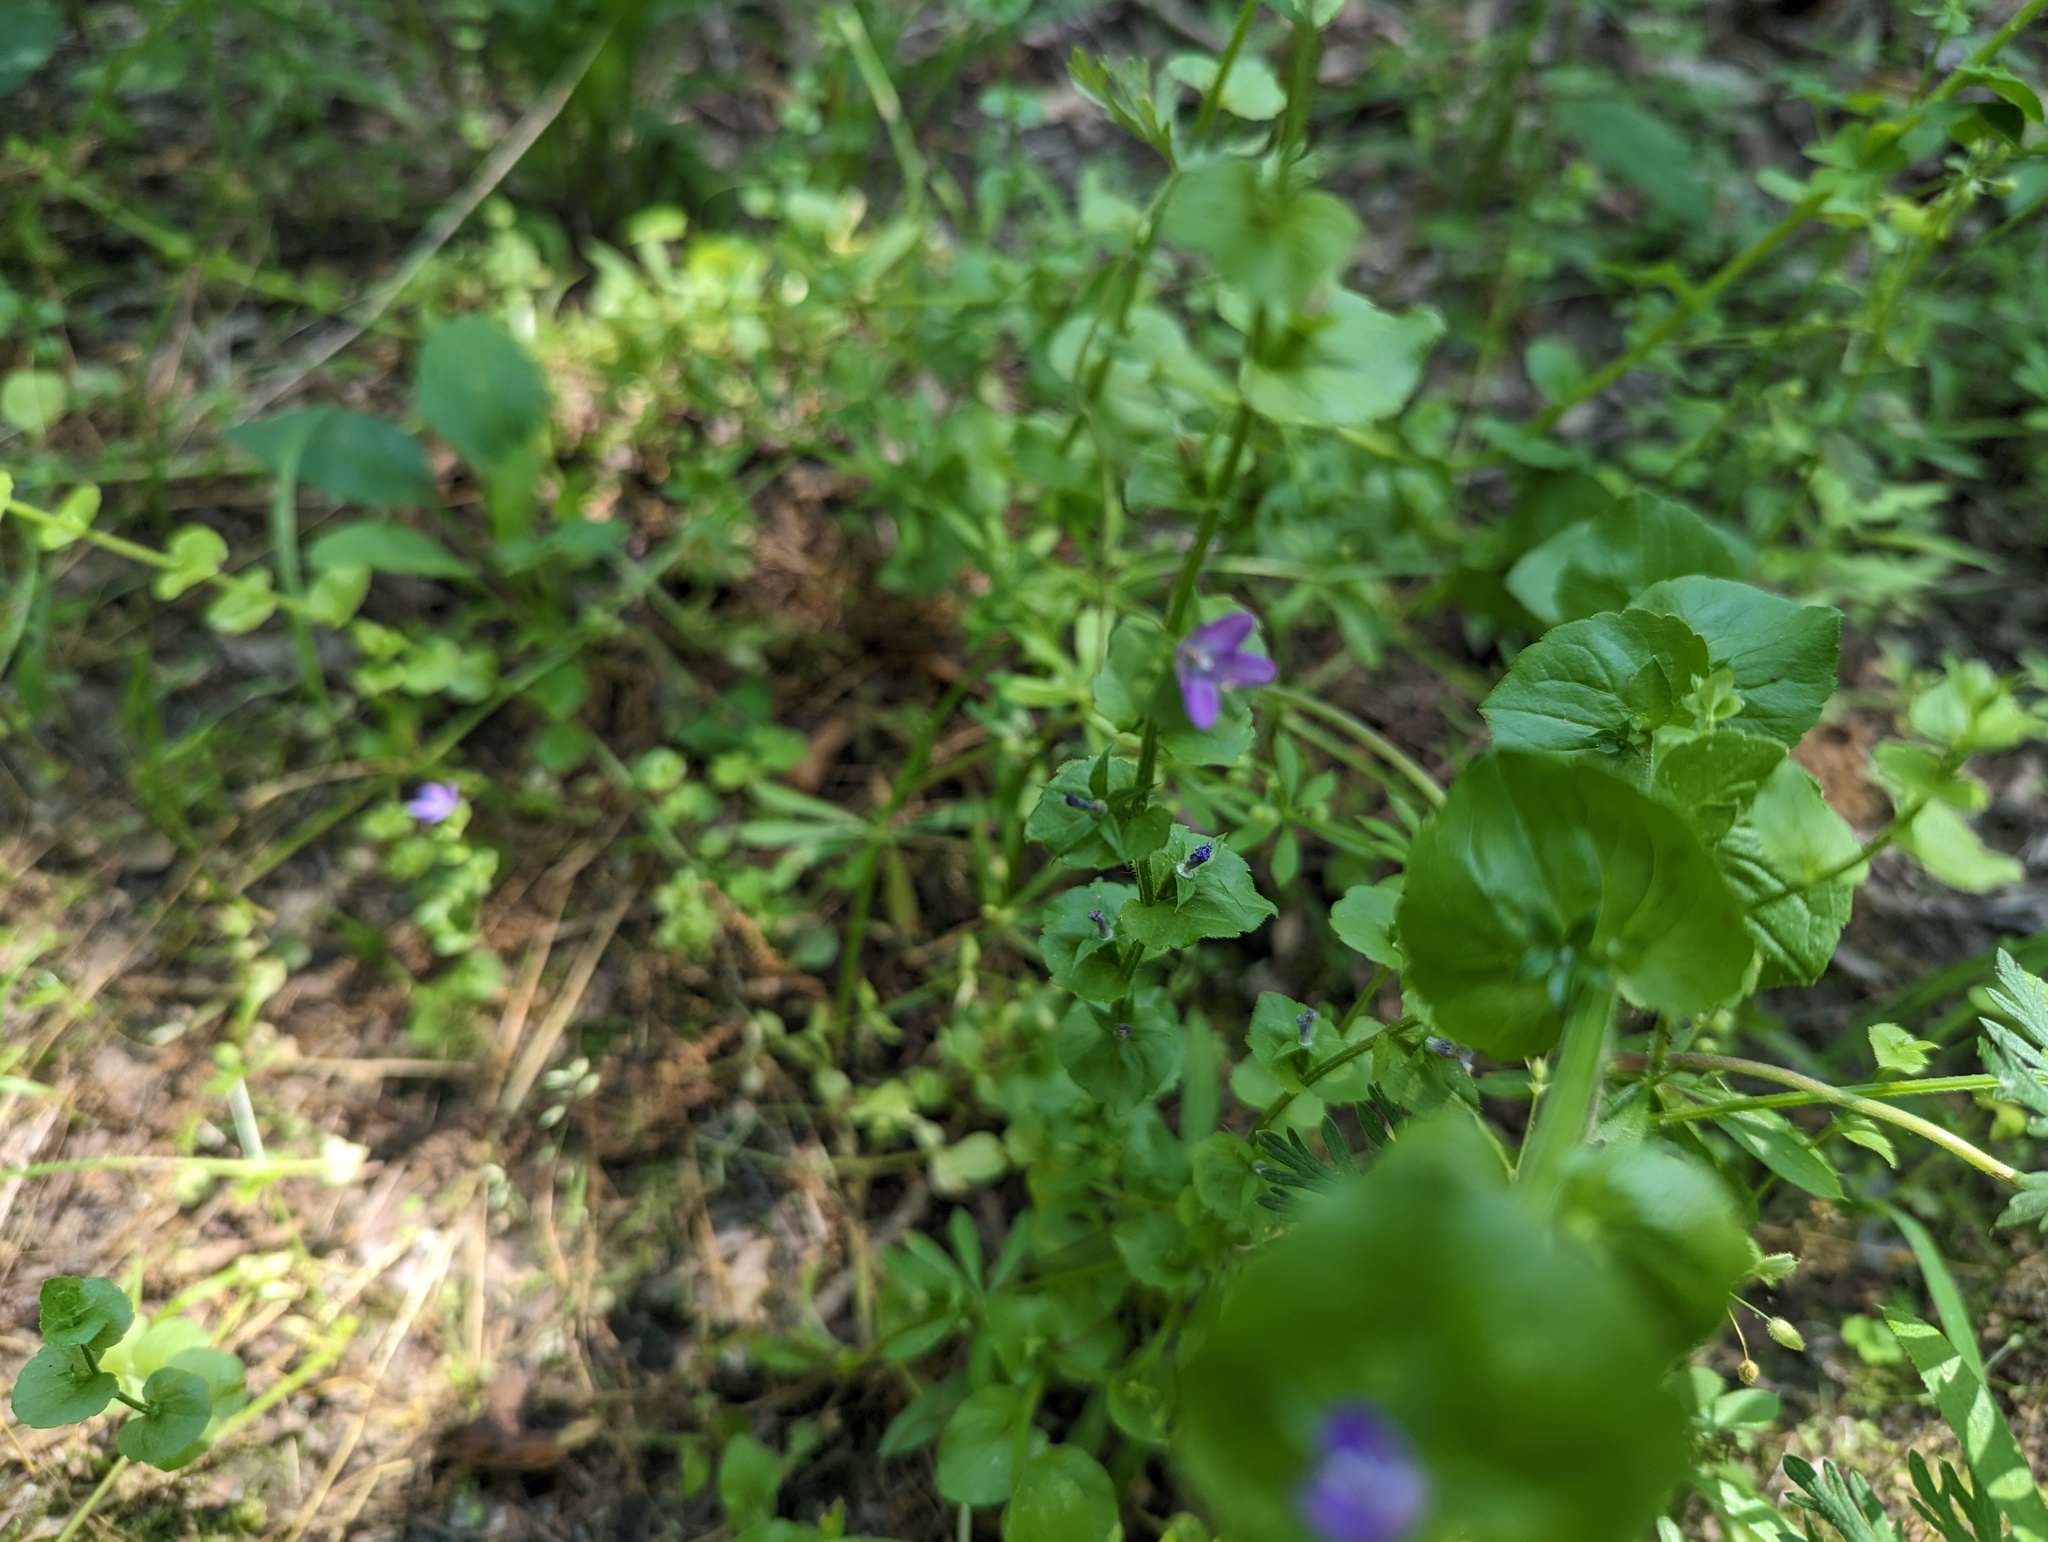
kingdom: Plantae
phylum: Tracheophyta
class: Magnoliopsida
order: Asterales
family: Campanulaceae
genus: Triodanis
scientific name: Triodanis perfoliata
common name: Clasping venus' looking-glass
